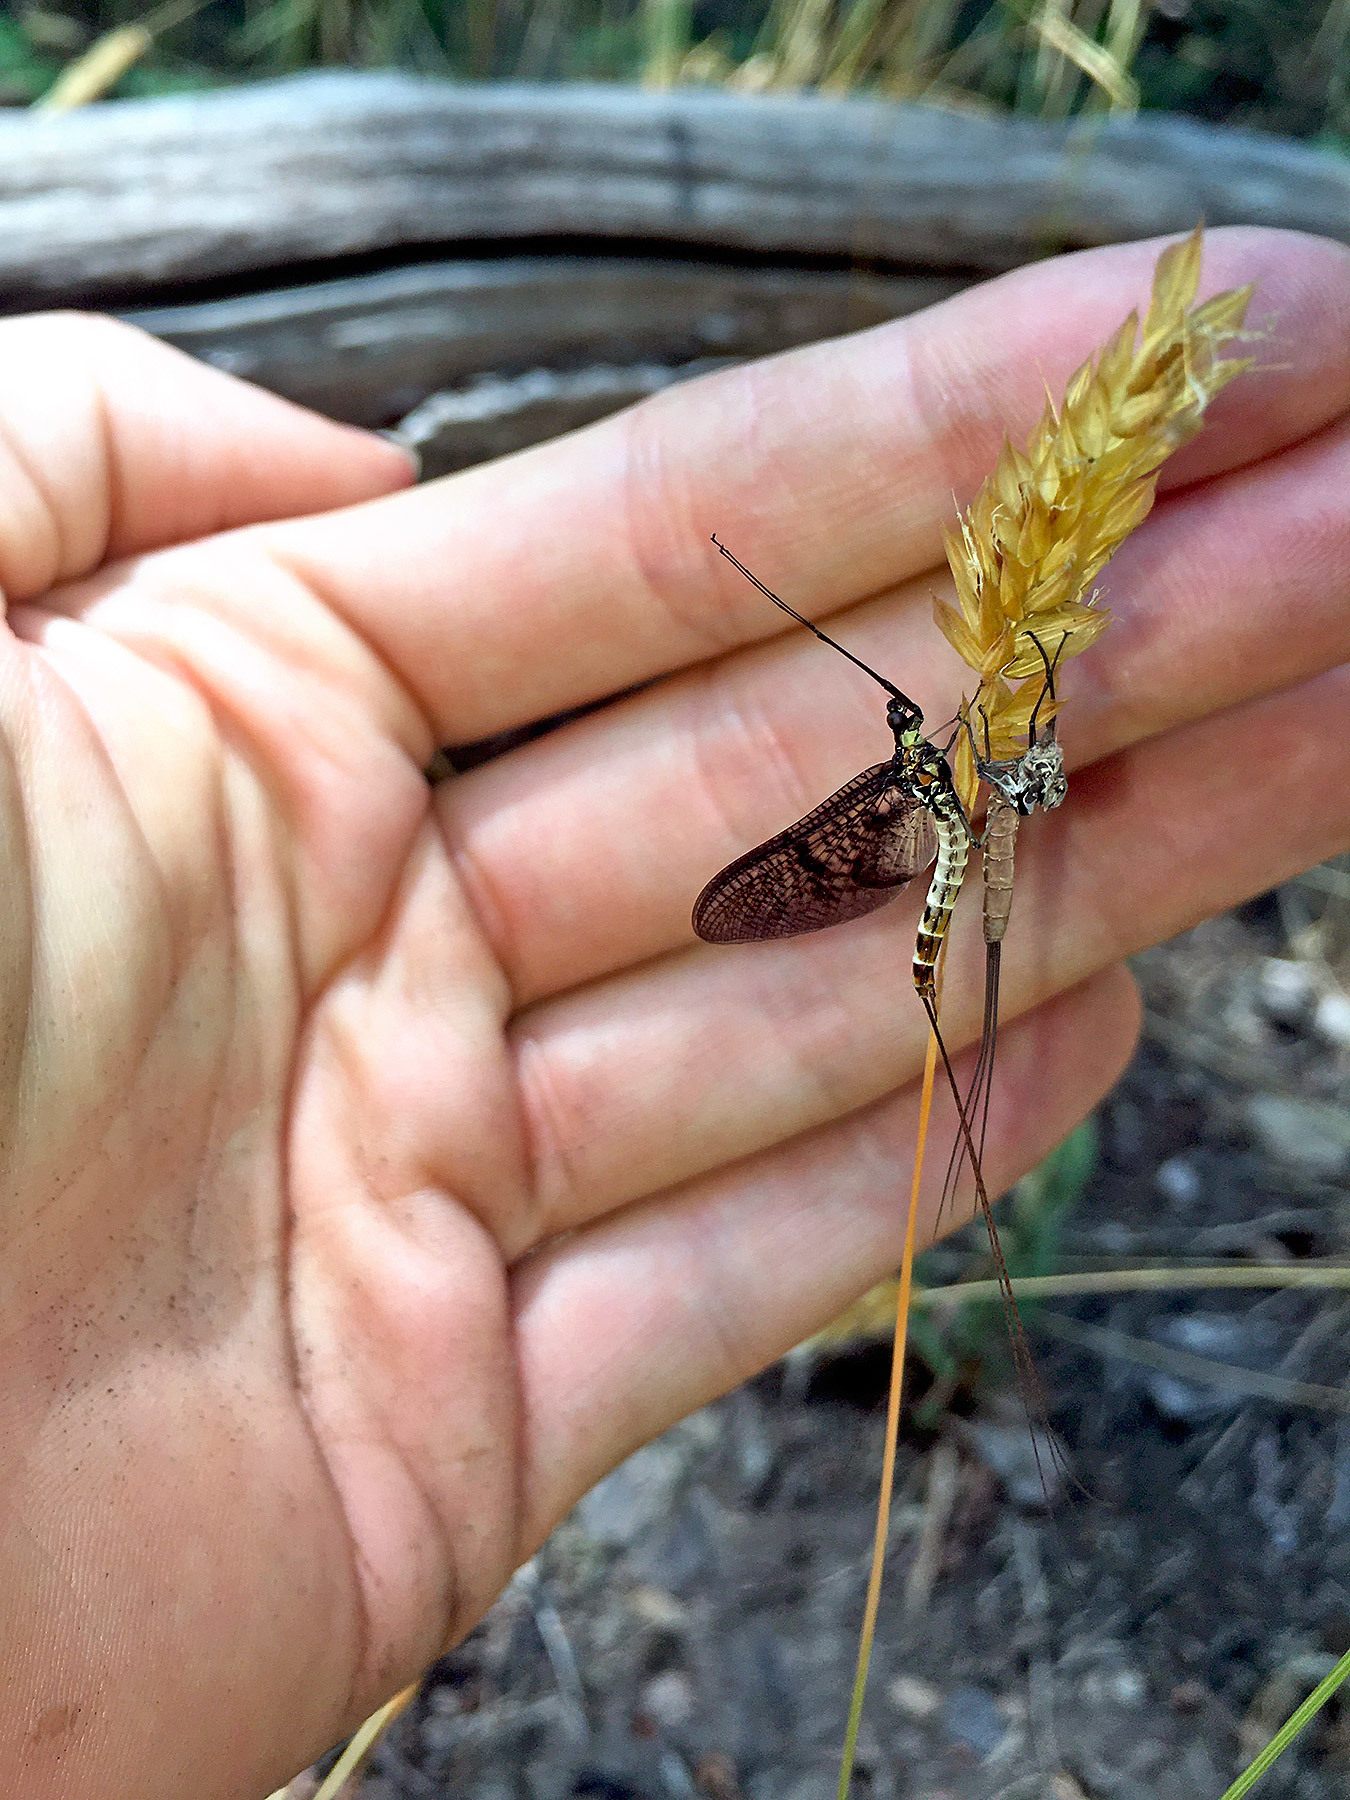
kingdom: Animalia
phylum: Arthropoda
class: Insecta
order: Ephemeroptera
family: Ephemeridae
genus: Ephemera
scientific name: Ephemera danica
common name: Green dun
